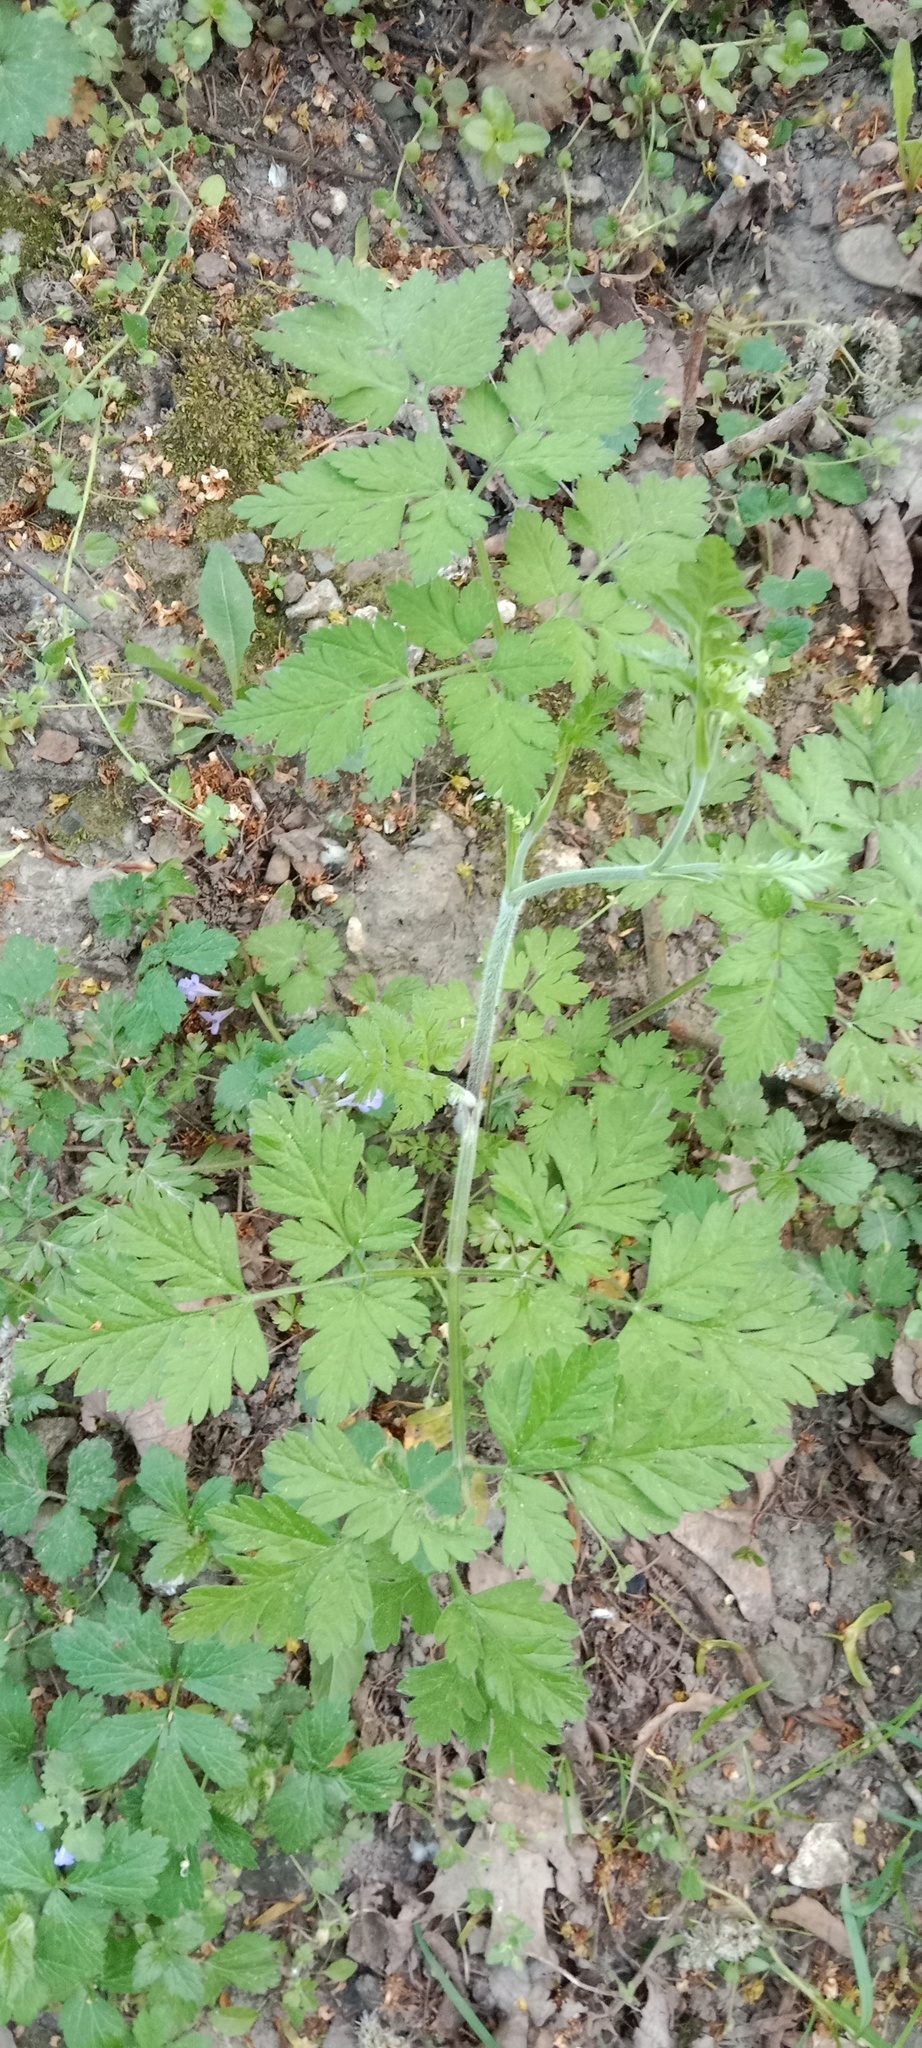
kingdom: Plantae
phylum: Tracheophyta
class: Magnoliopsida
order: Apiales
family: Apiaceae
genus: Chaerophyllum
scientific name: Chaerophyllum temulum
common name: Rough chervil
